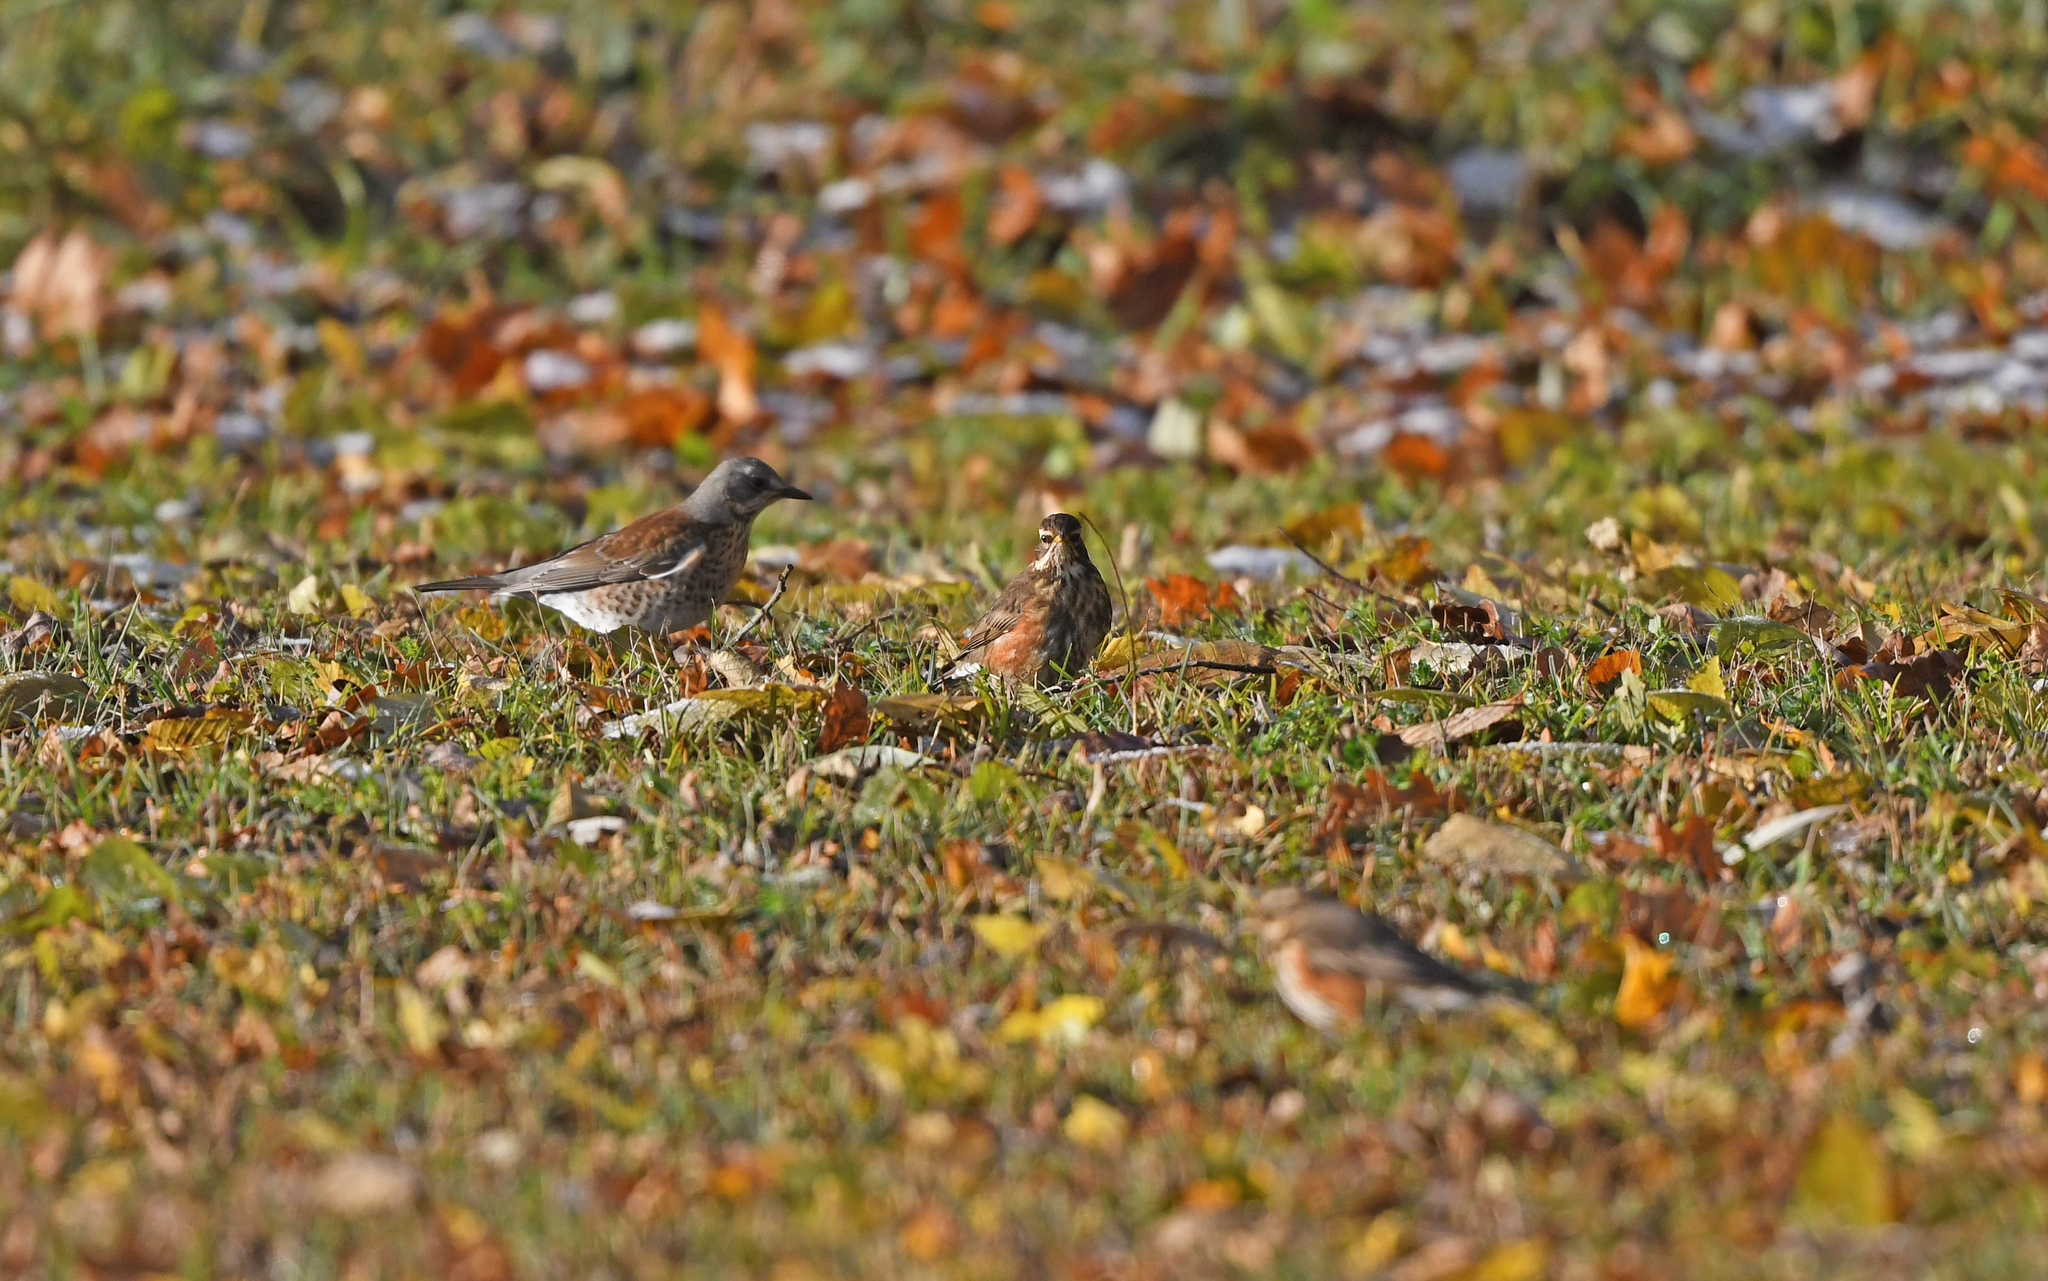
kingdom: Animalia
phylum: Chordata
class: Aves
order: Passeriformes
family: Turdidae
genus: Turdus
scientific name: Turdus iliacus
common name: Redwing
